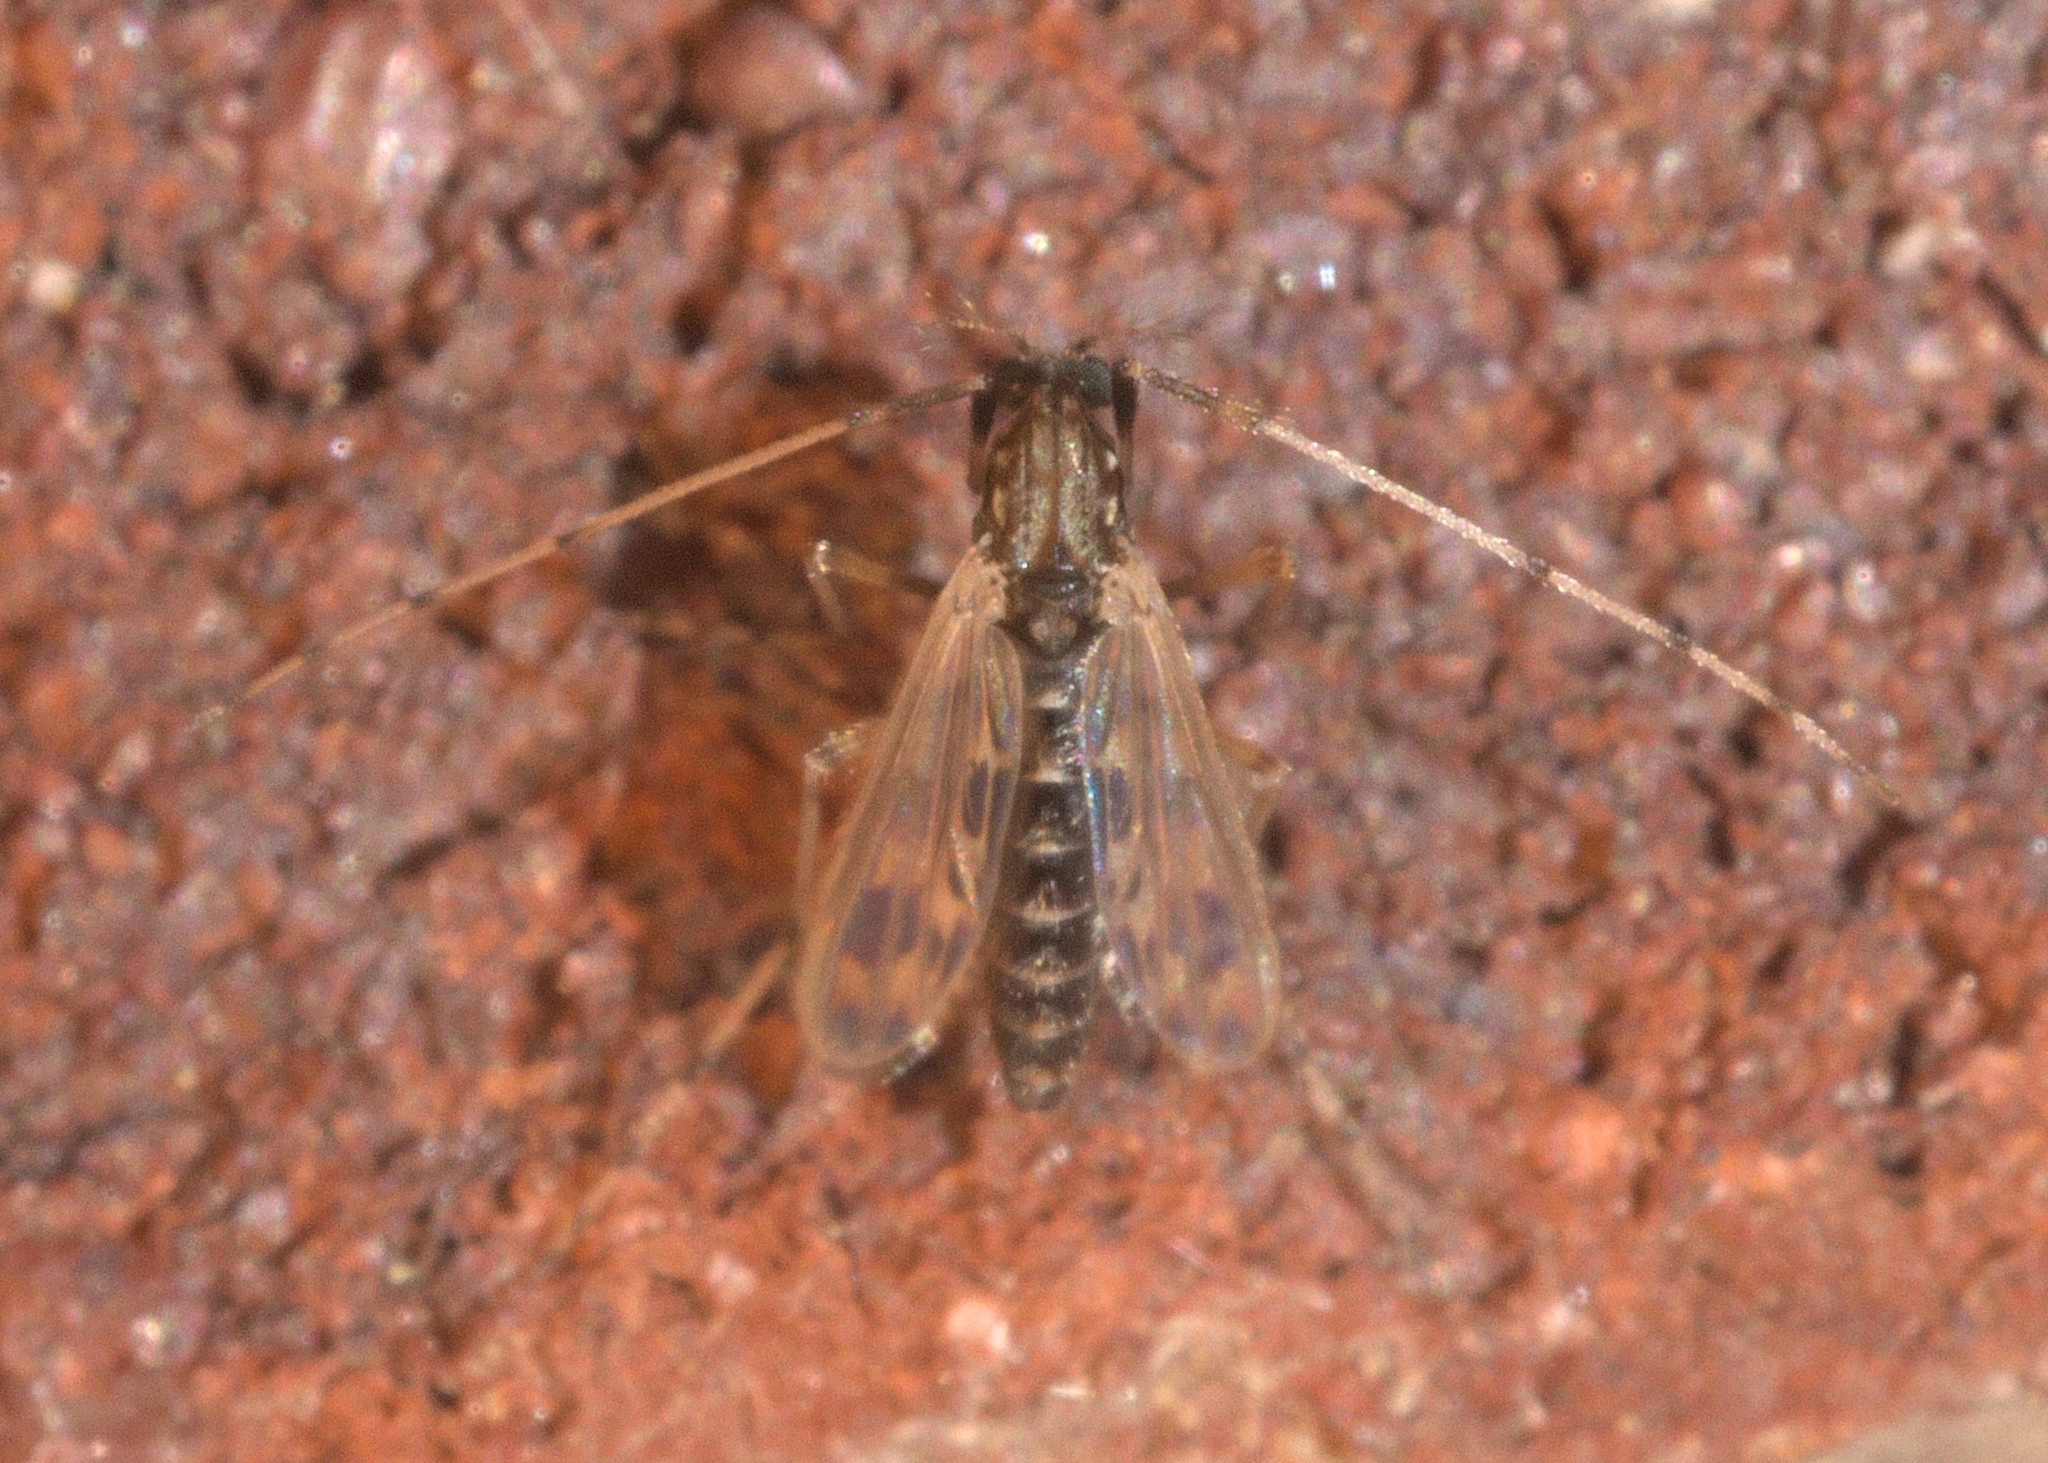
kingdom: Animalia
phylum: Arthropoda
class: Insecta
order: Diptera
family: Chironomidae
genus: Zavreliella
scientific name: Zavreliella marmorata
